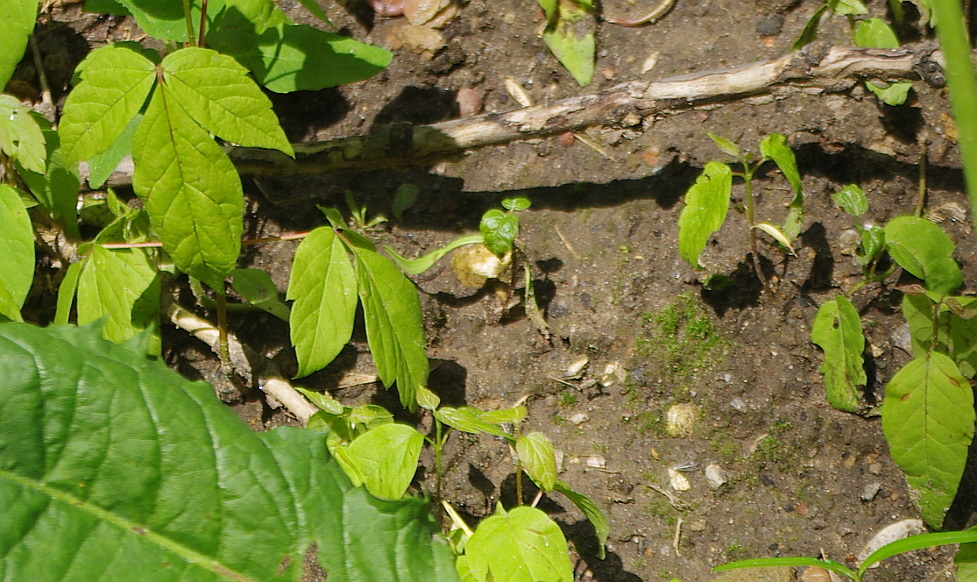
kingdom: Plantae
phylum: Tracheophyta
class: Magnoliopsida
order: Sapindales
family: Sapindaceae
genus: Acer
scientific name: Acer negundo
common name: Ashleaf maple
